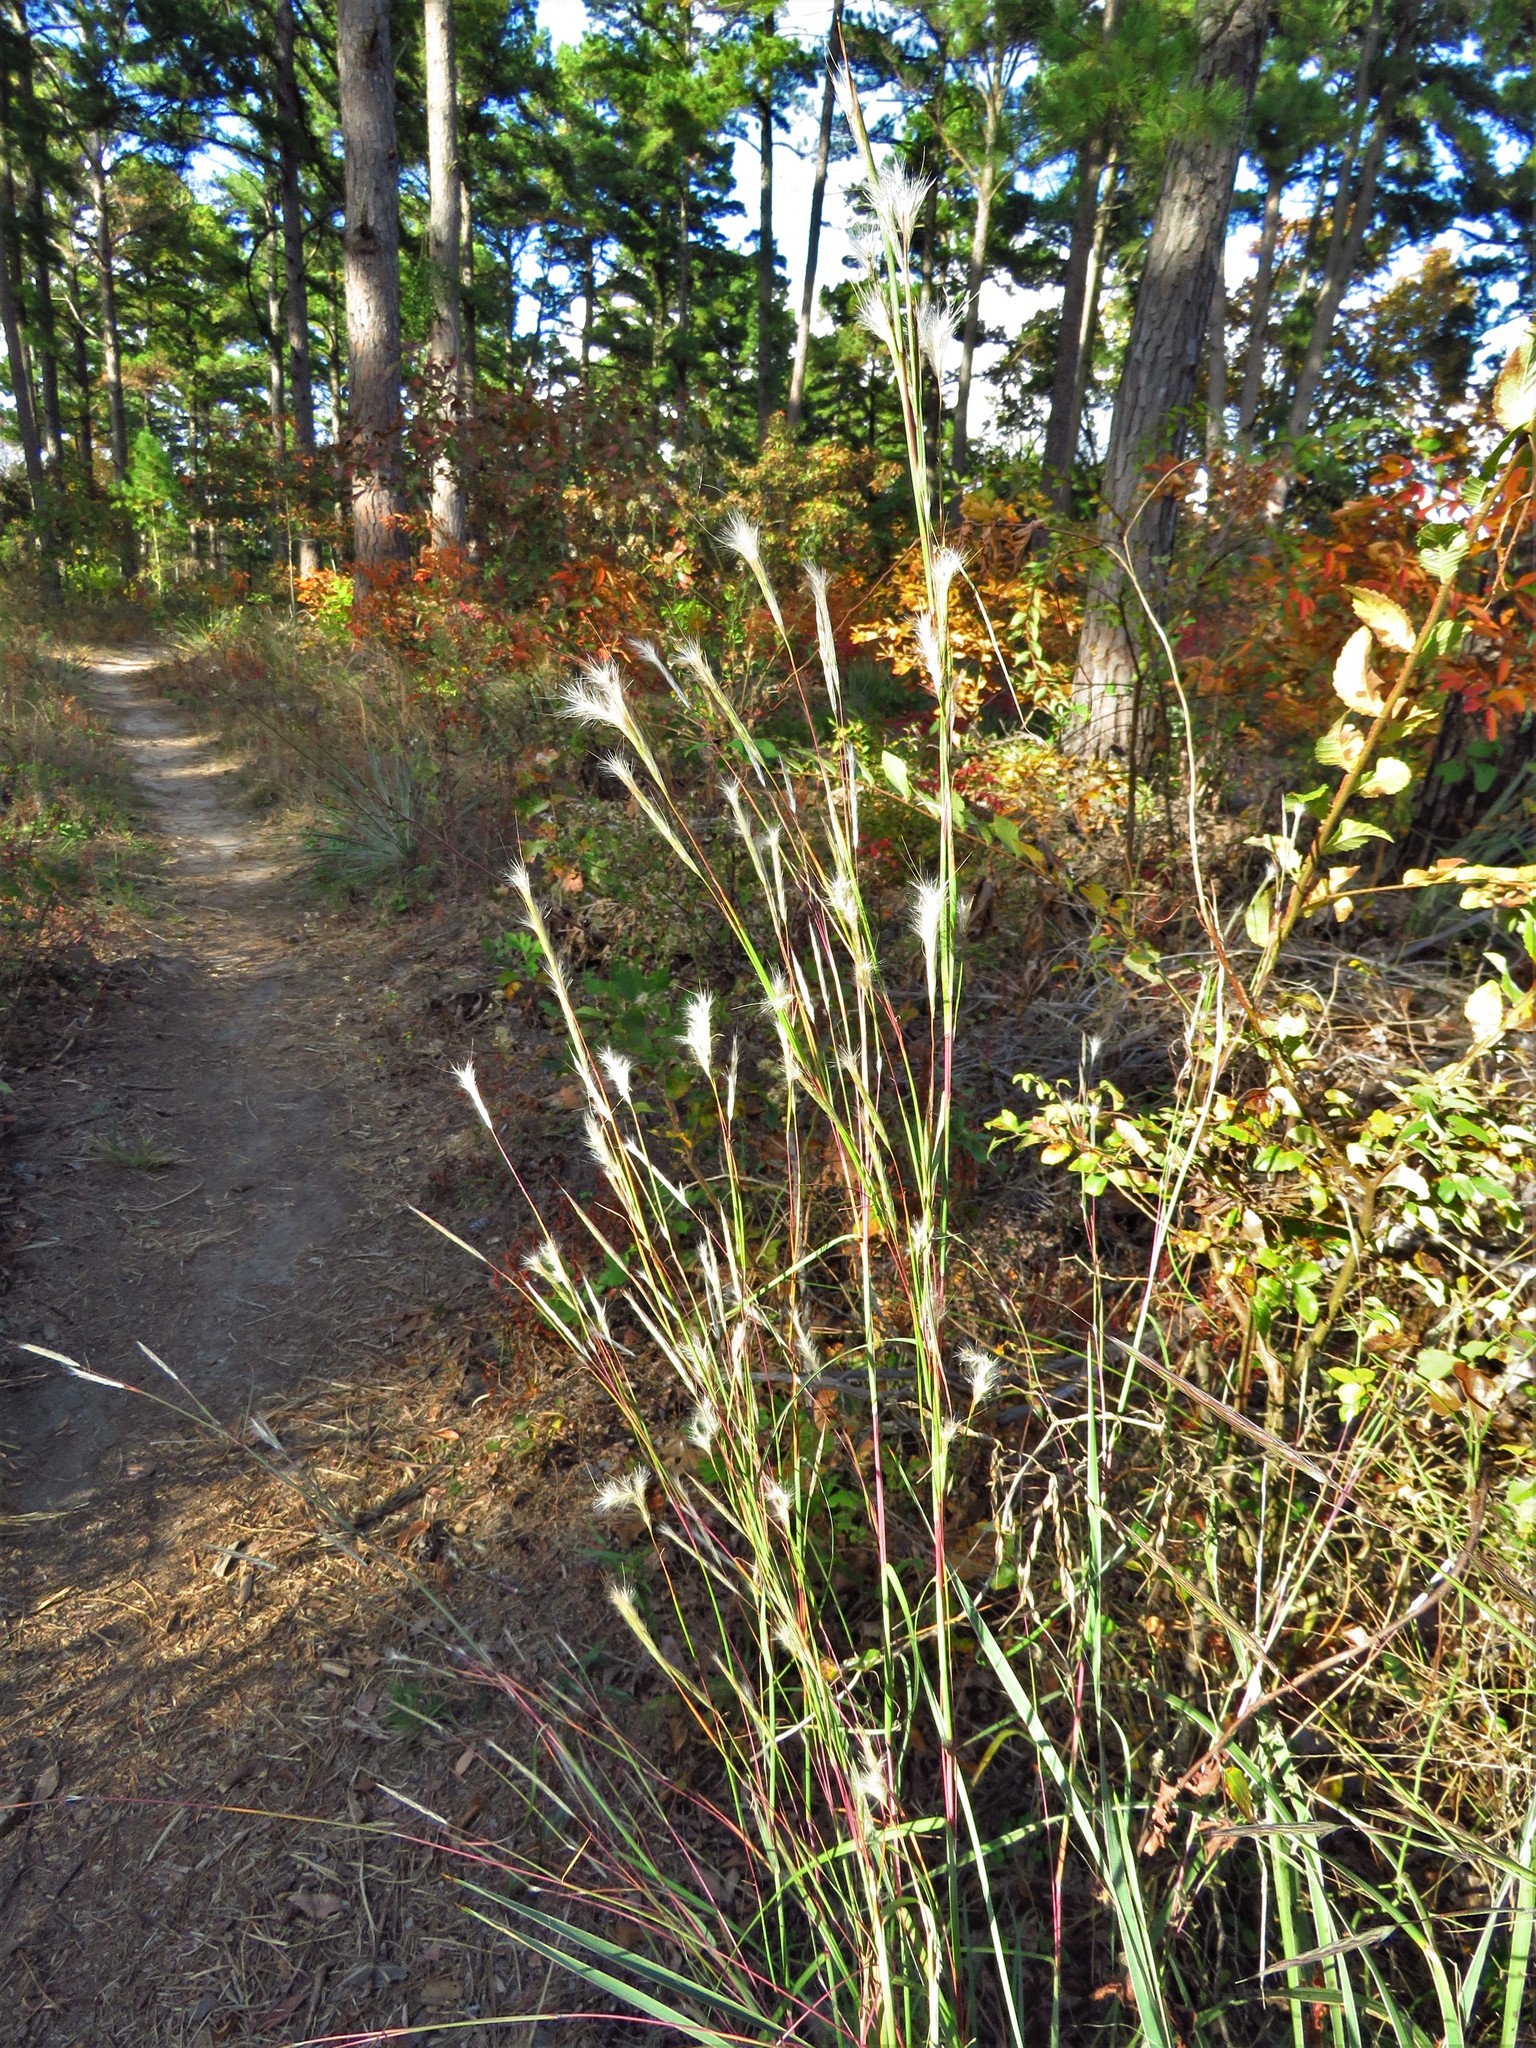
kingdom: Plantae
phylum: Tracheophyta
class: Liliopsida
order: Poales
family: Poaceae
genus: Andropogon
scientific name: Andropogon ternarius
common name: Split bluestem
